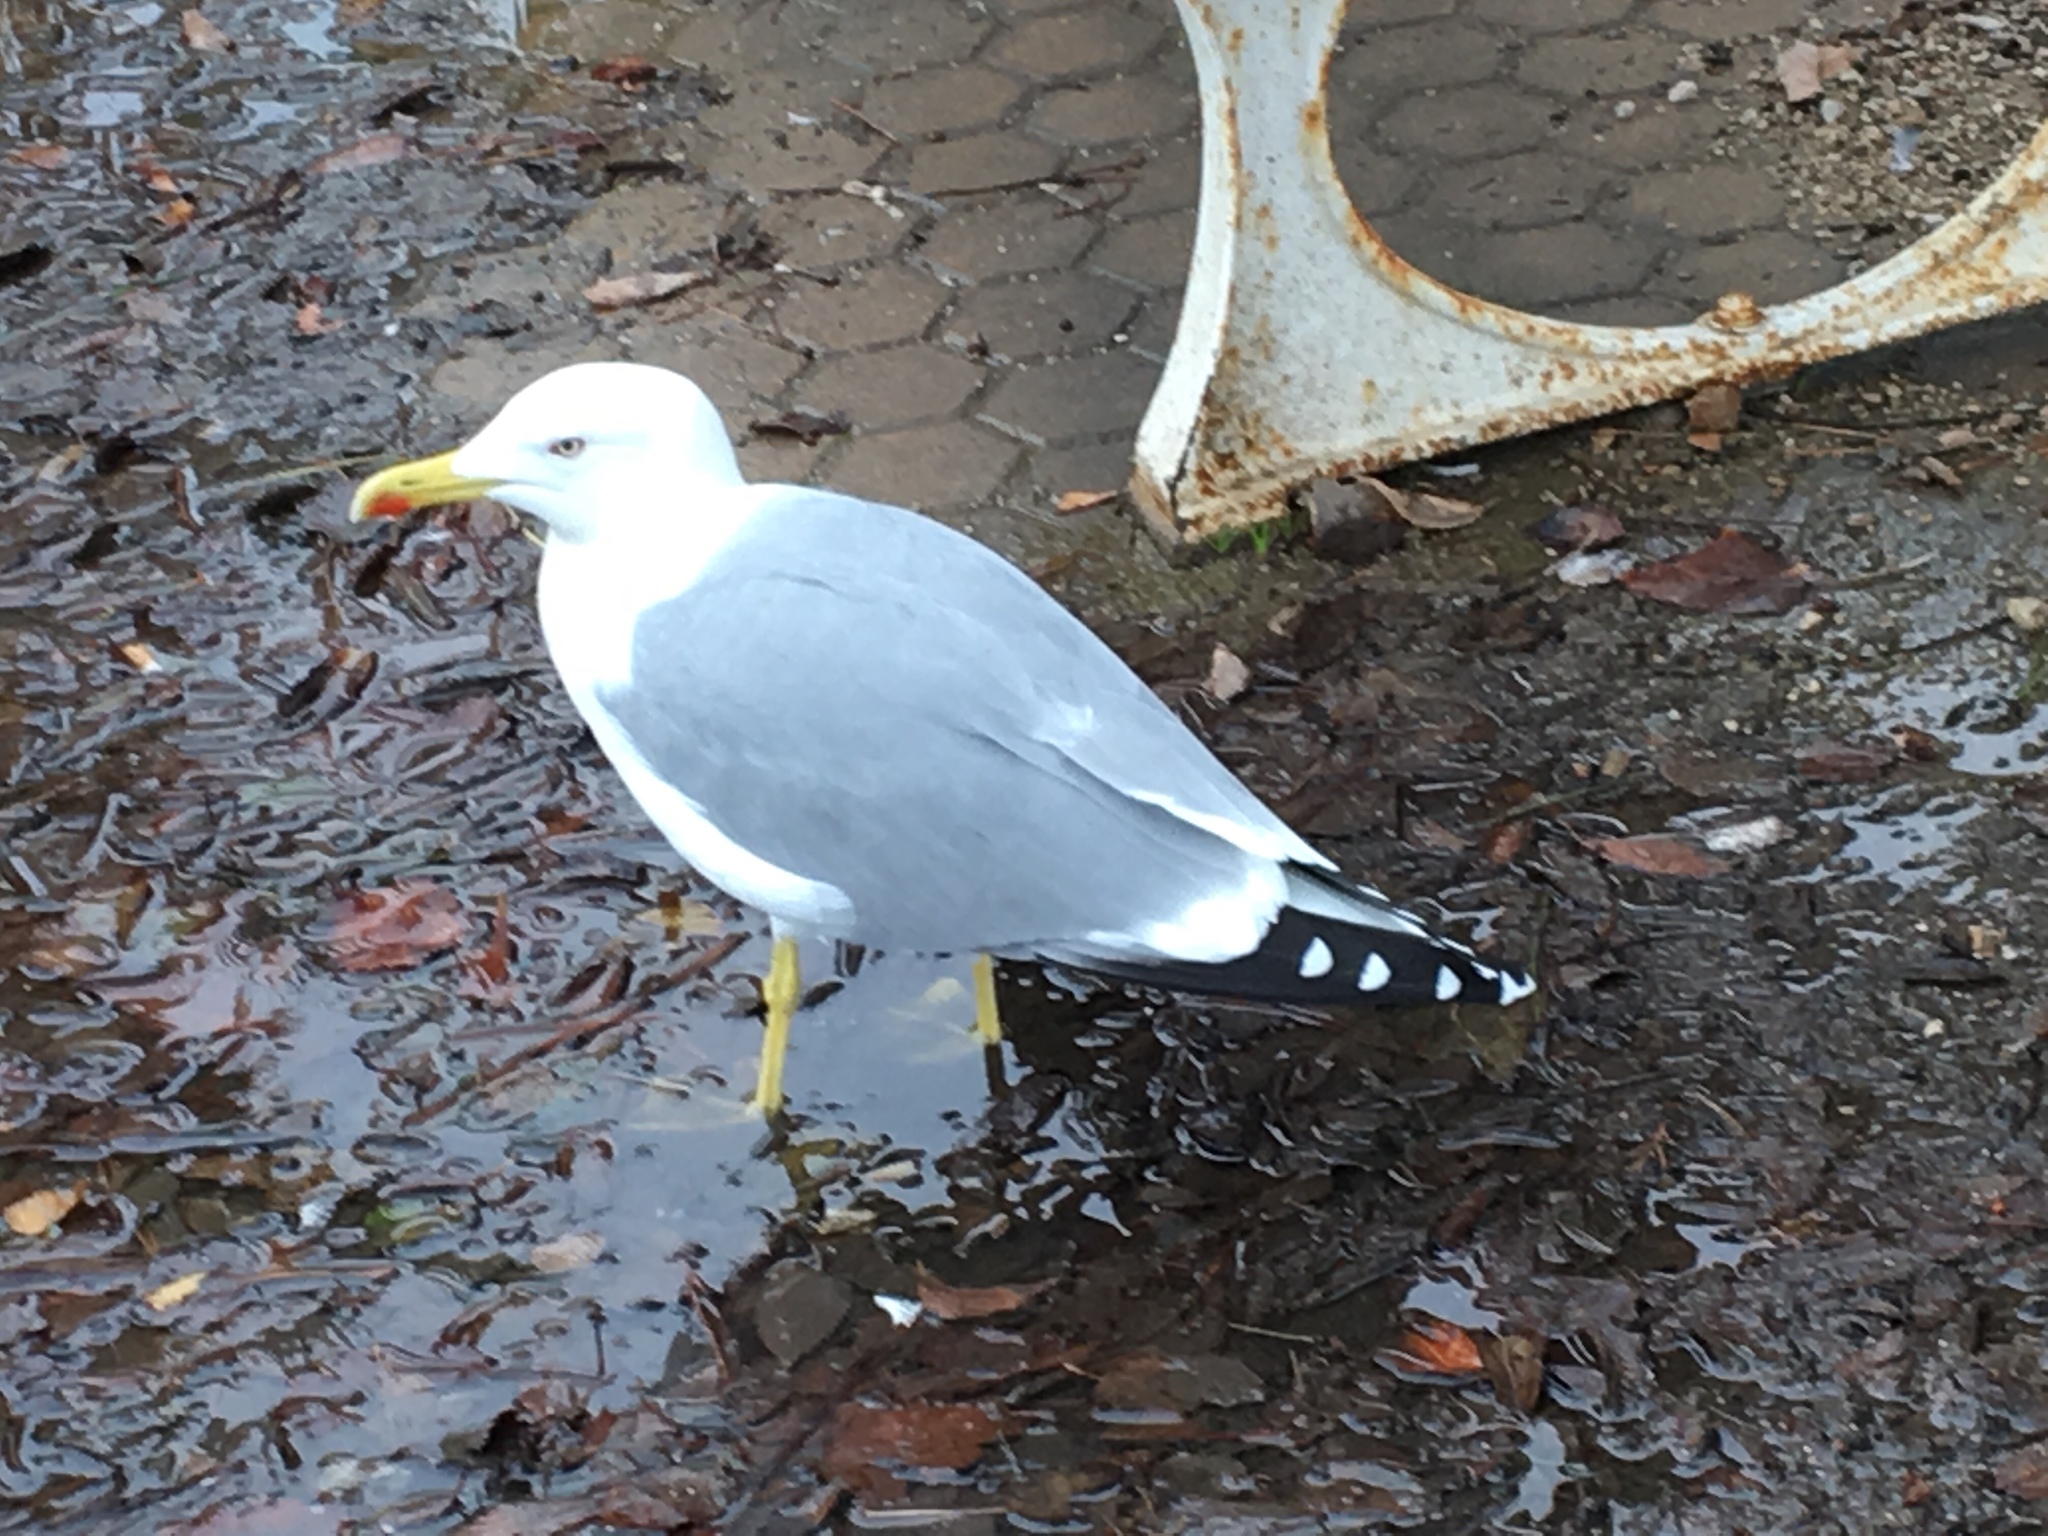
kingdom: Animalia
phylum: Chordata
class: Aves
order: Charadriiformes
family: Laridae
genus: Larus
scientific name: Larus michahellis
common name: Yellow-legged gull
